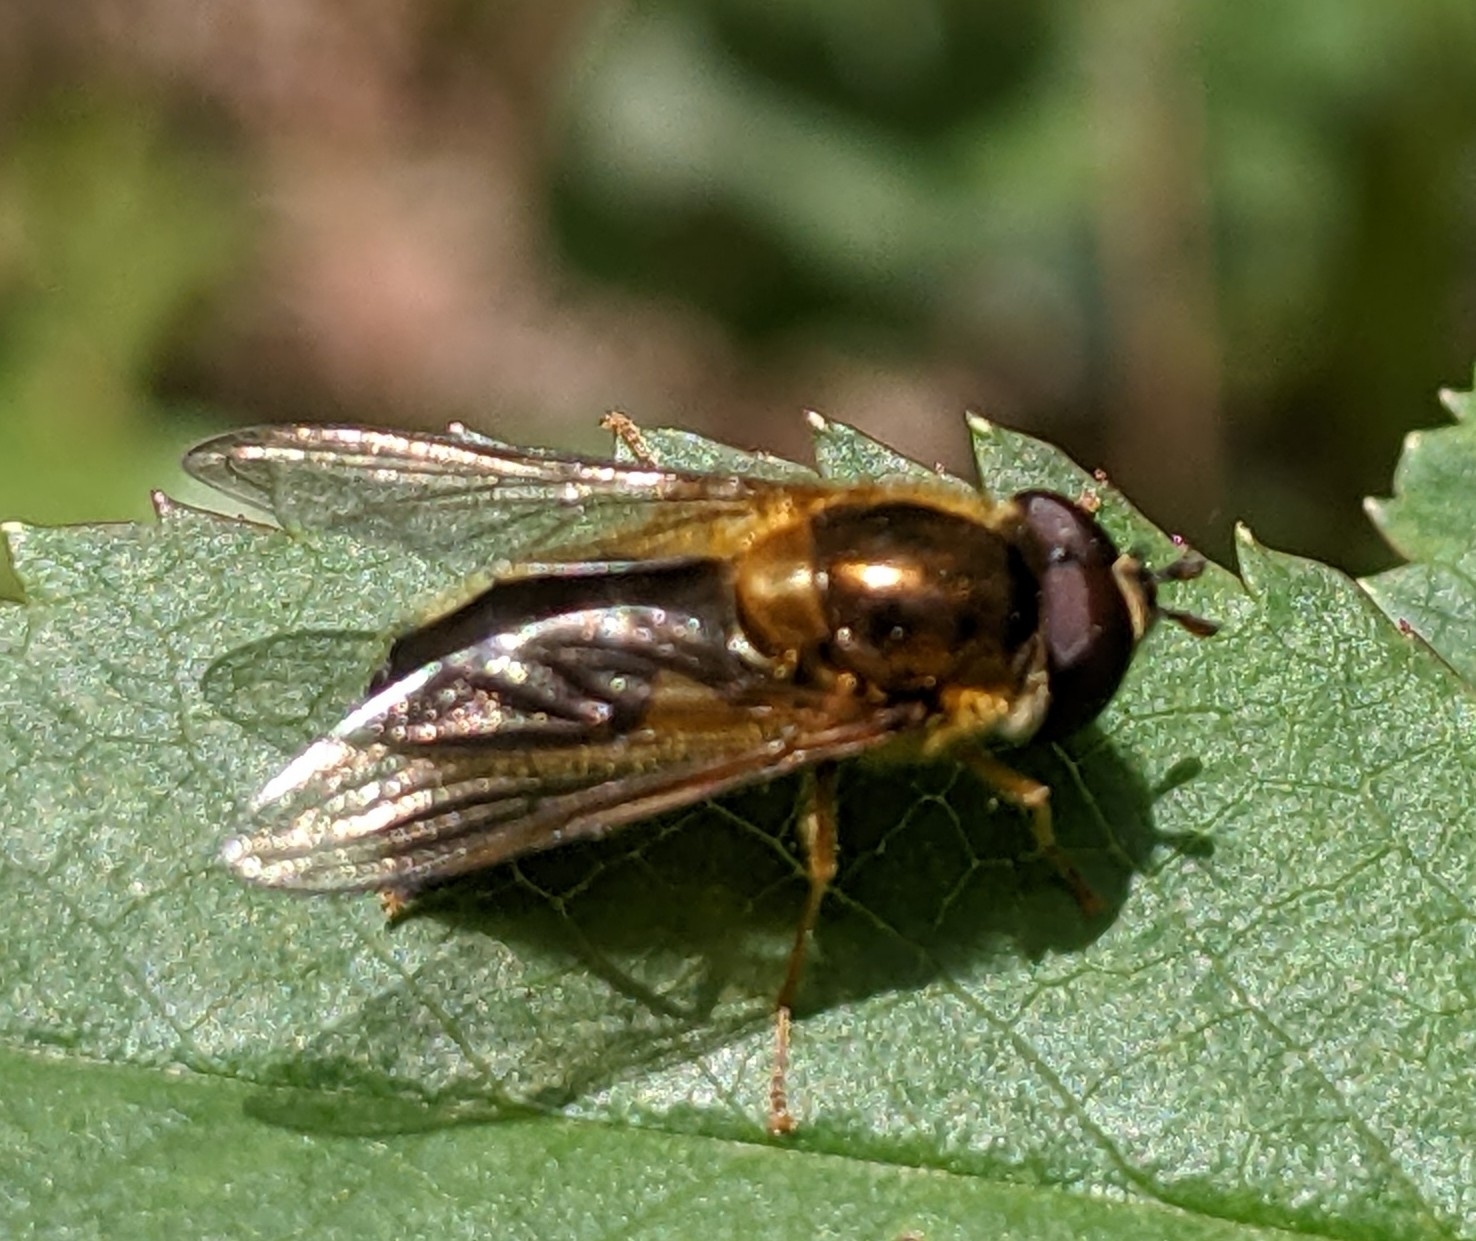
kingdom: Animalia
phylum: Arthropoda
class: Insecta
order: Diptera
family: Syrphidae
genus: Epistrophe
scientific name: Epistrophe eligans
